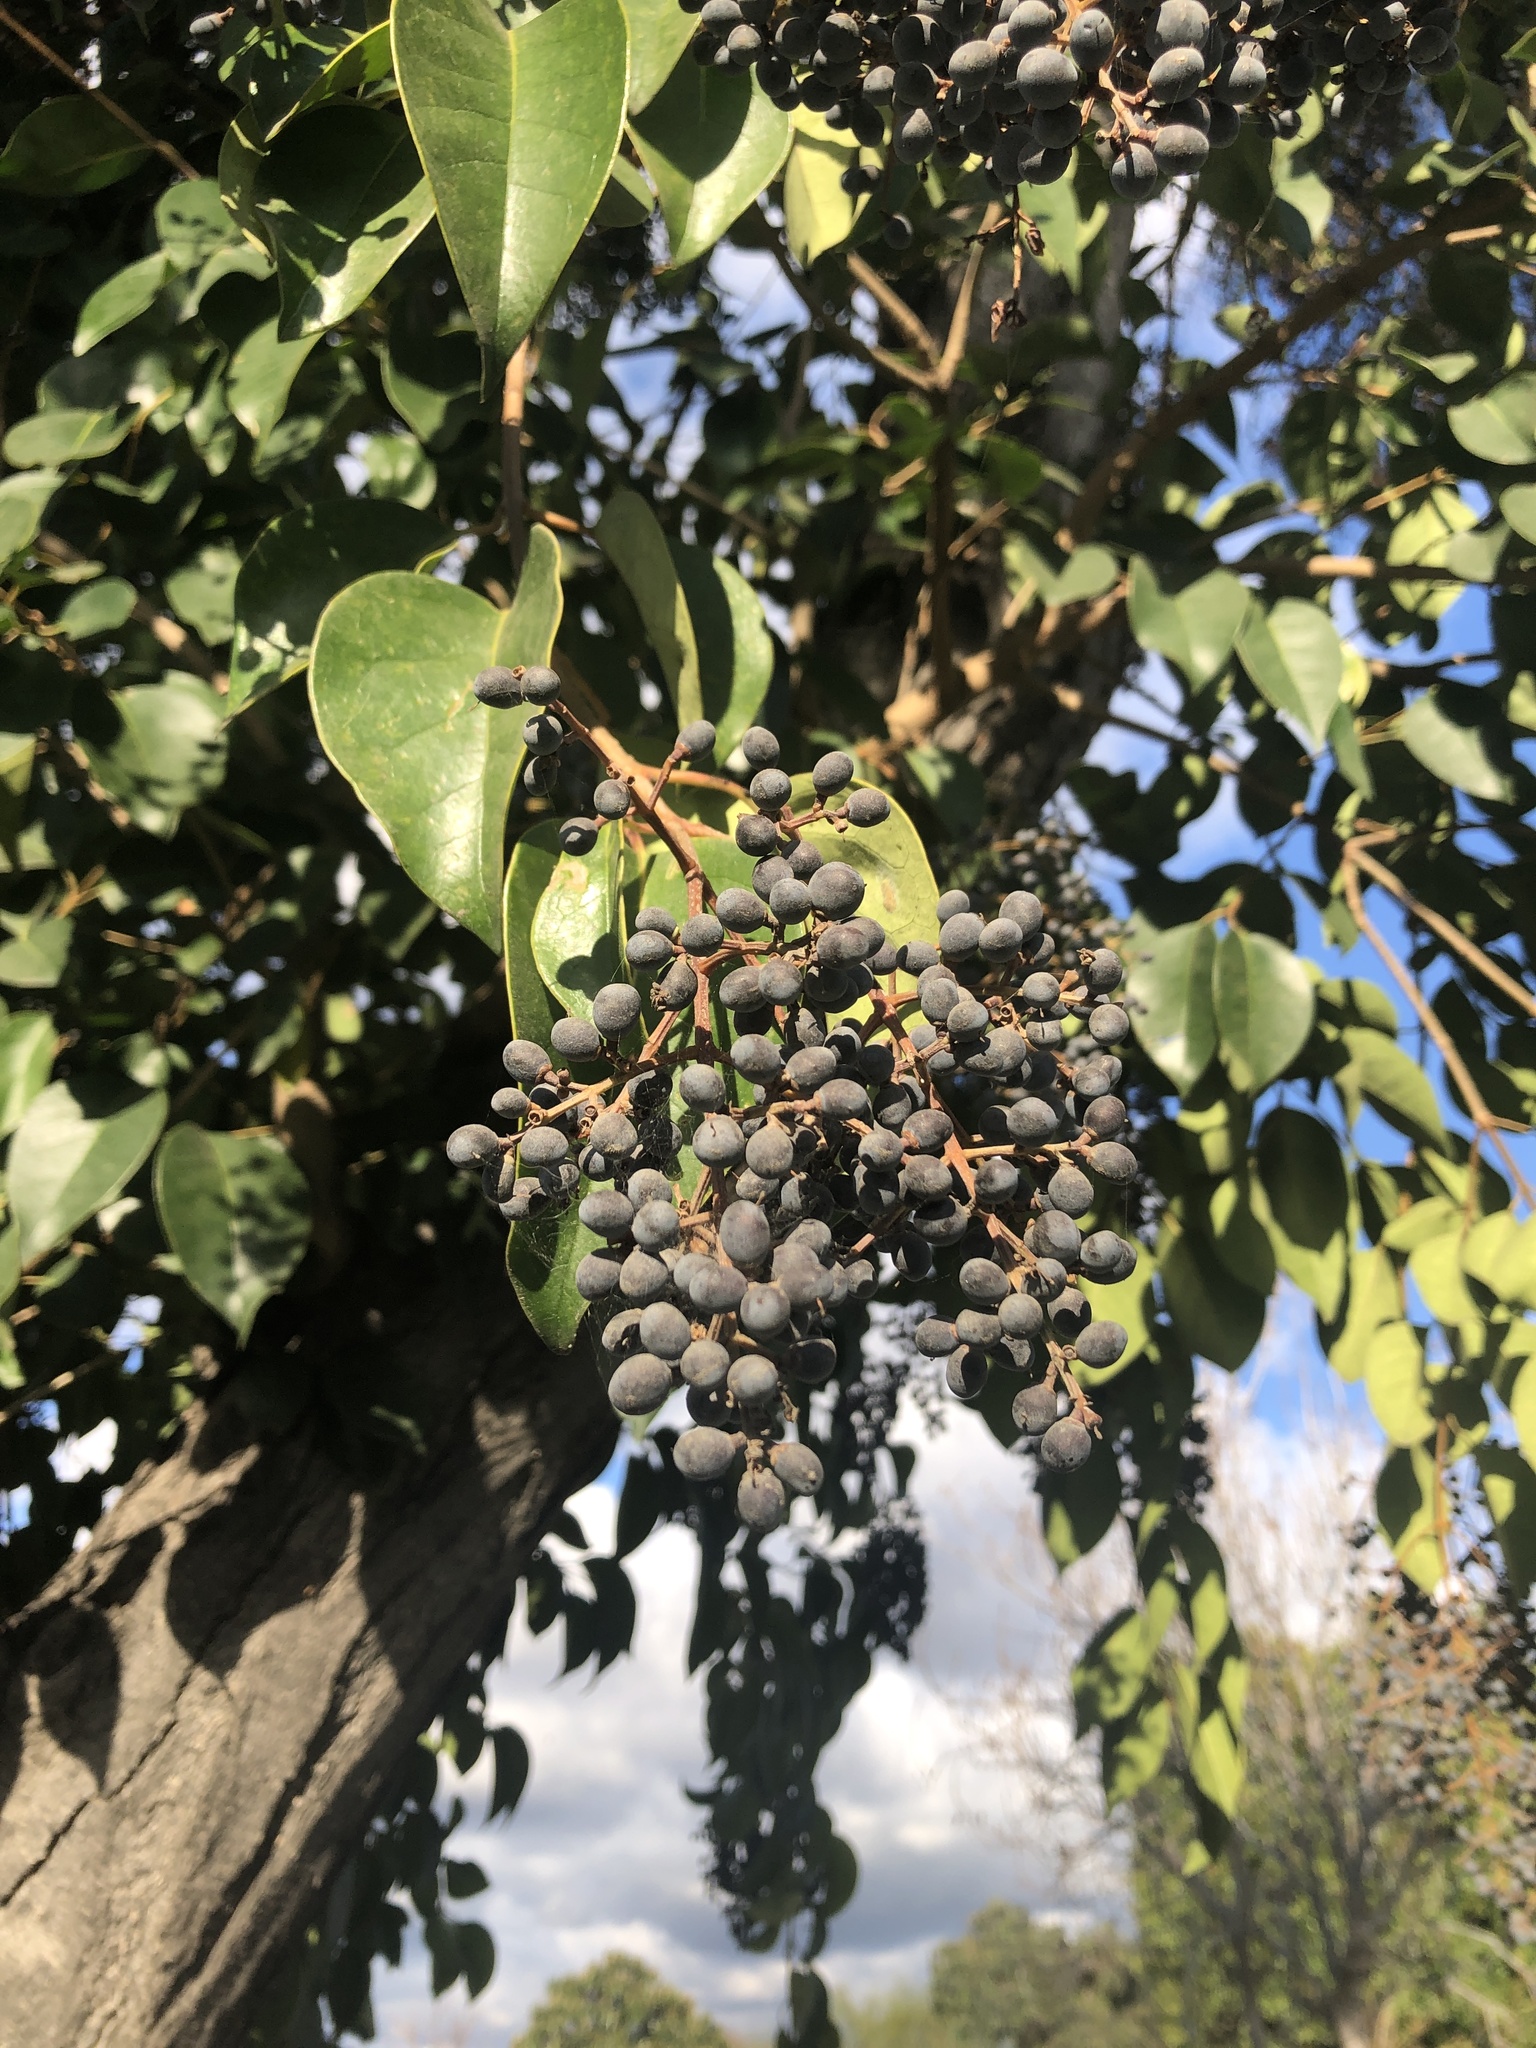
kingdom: Plantae
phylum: Tracheophyta
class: Magnoliopsida
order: Lamiales
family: Oleaceae
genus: Ligustrum
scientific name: Ligustrum lucidum
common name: Glossy privet
